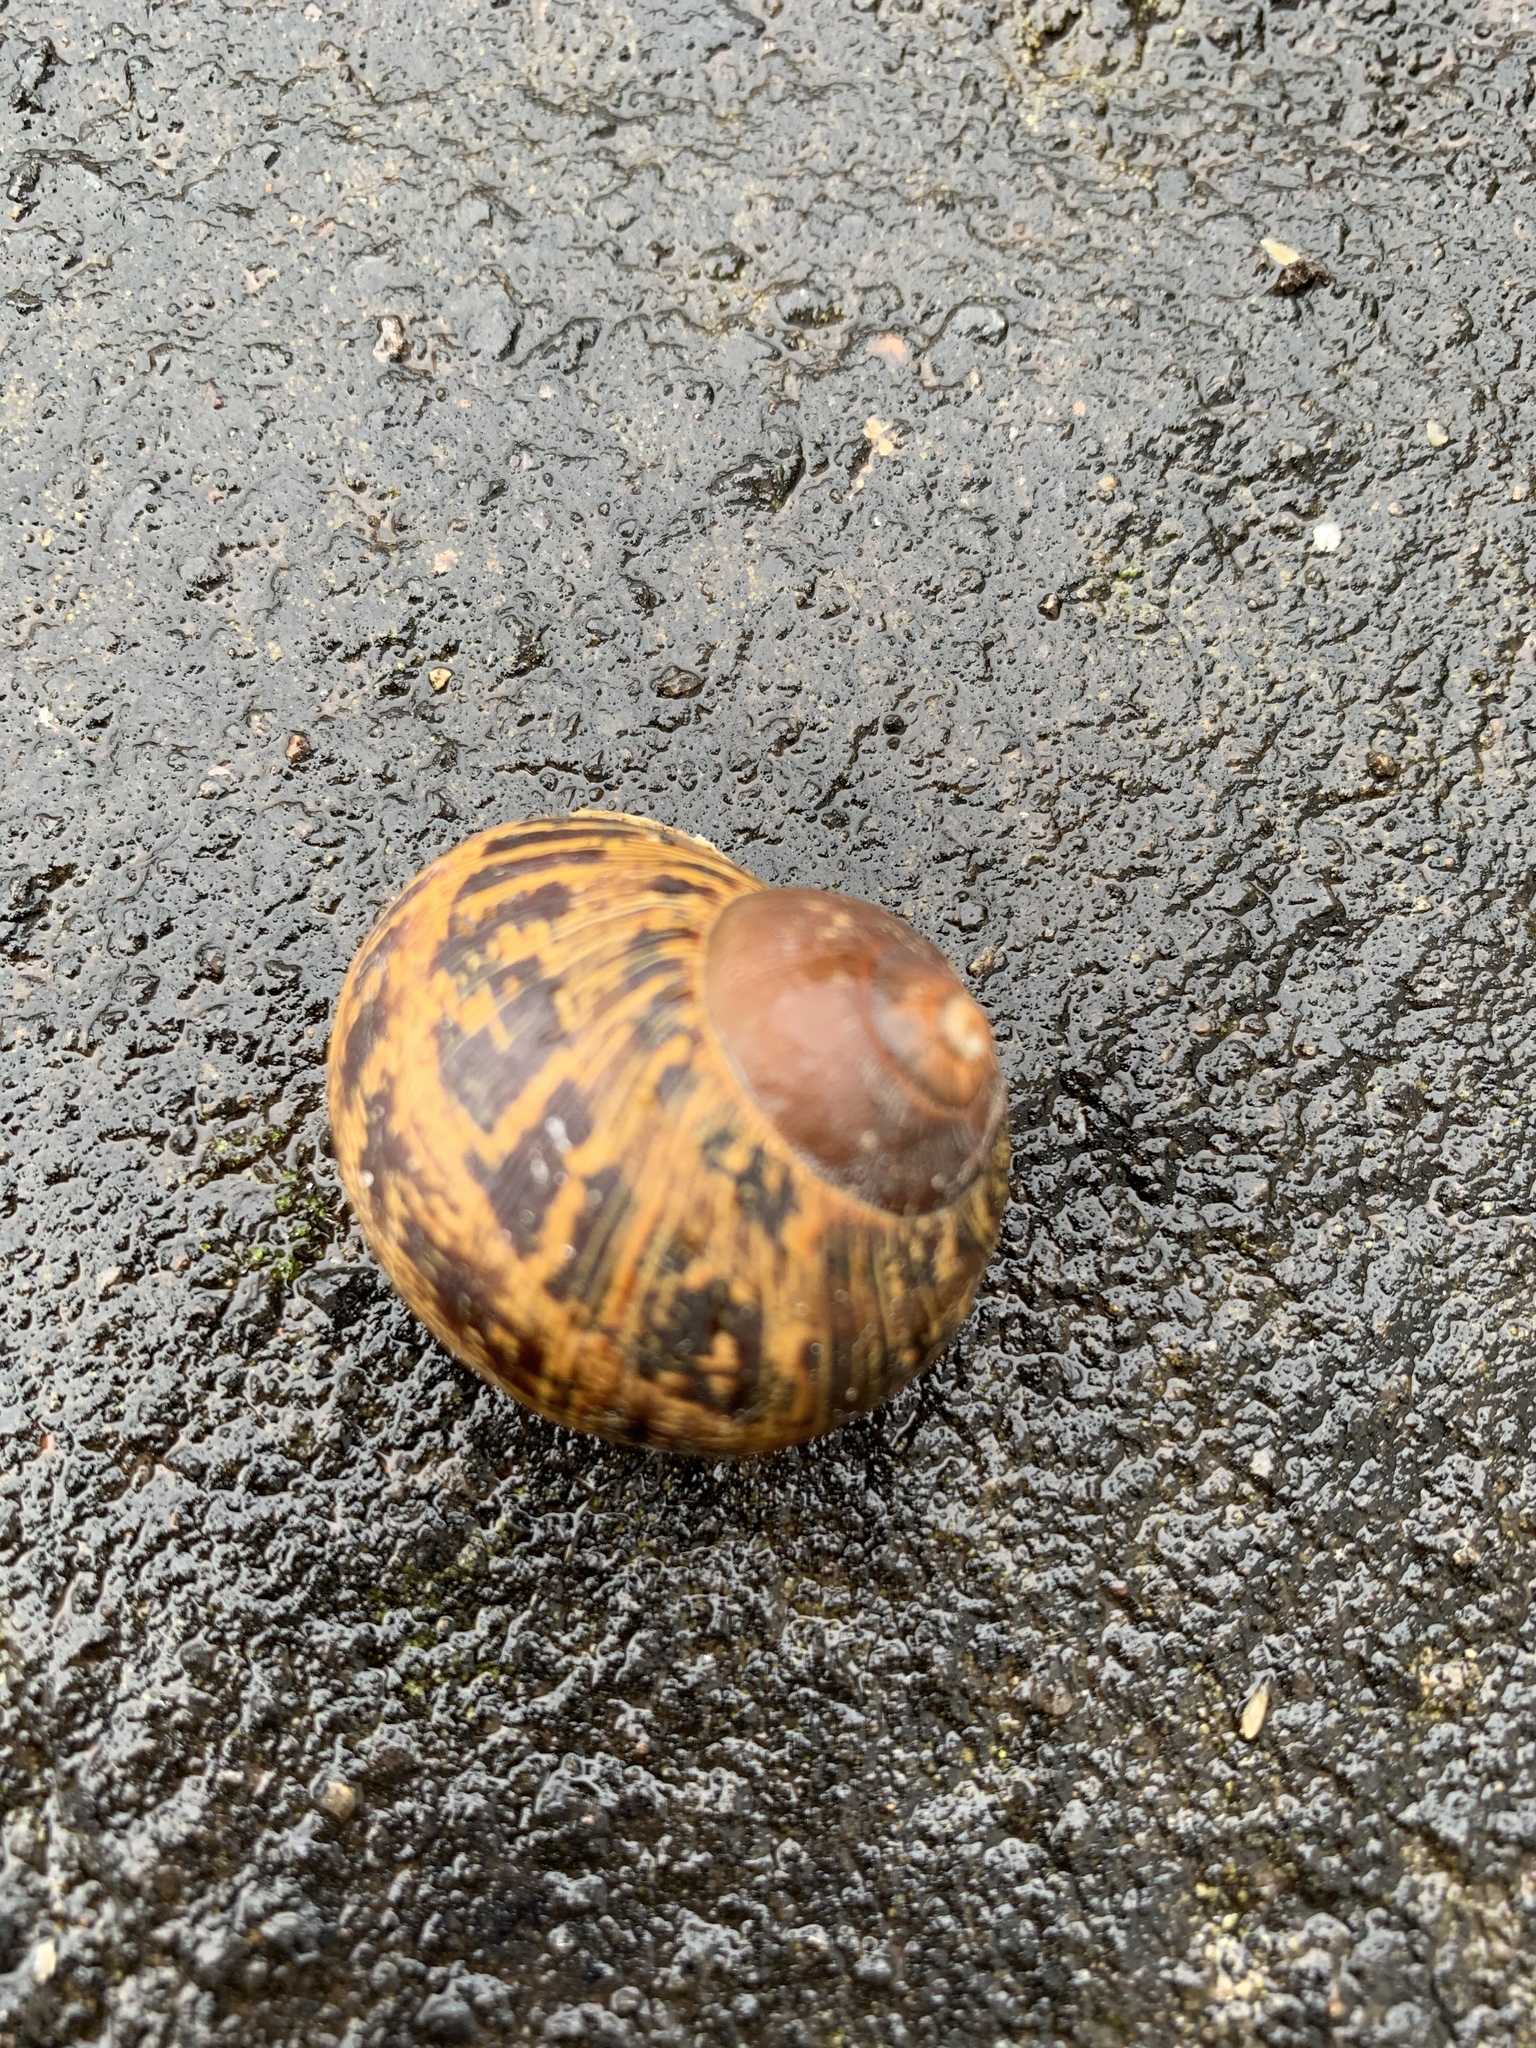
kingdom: Animalia
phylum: Mollusca
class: Gastropoda
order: Stylommatophora
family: Helicidae
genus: Cornu
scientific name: Cornu aspersum
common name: Brown garden snail
